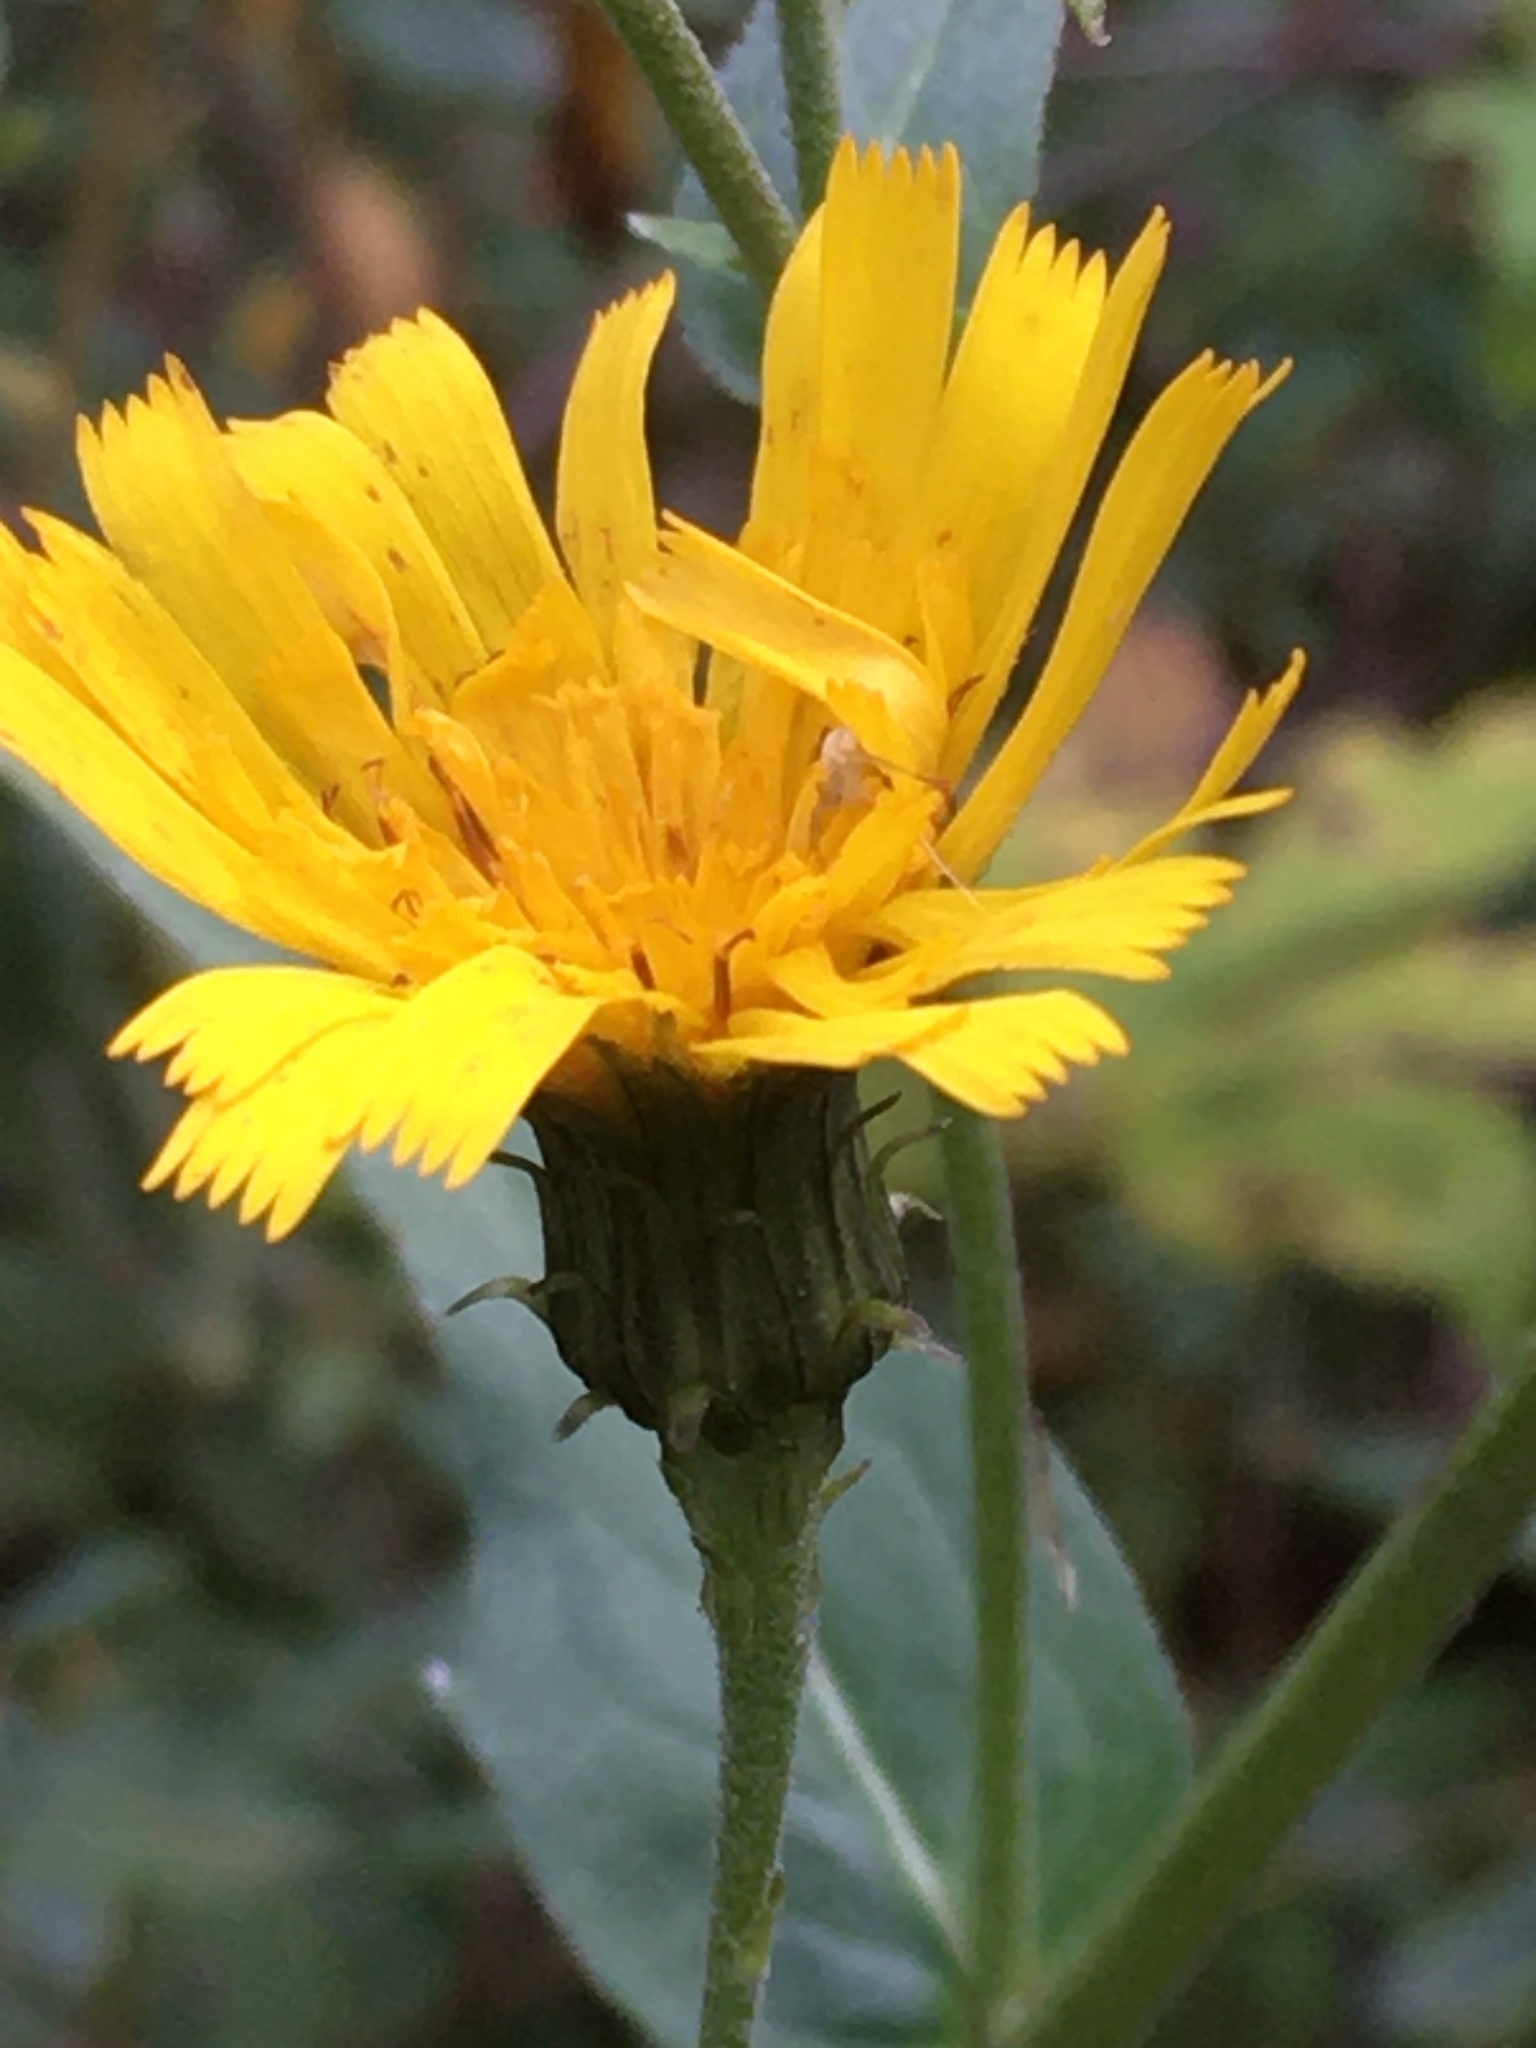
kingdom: Plantae
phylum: Tracheophyta
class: Magnoliopsida
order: Asterales
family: Asteraceae
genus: Hieracium
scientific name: Hieracium umbellatum
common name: Northern hawkweed
